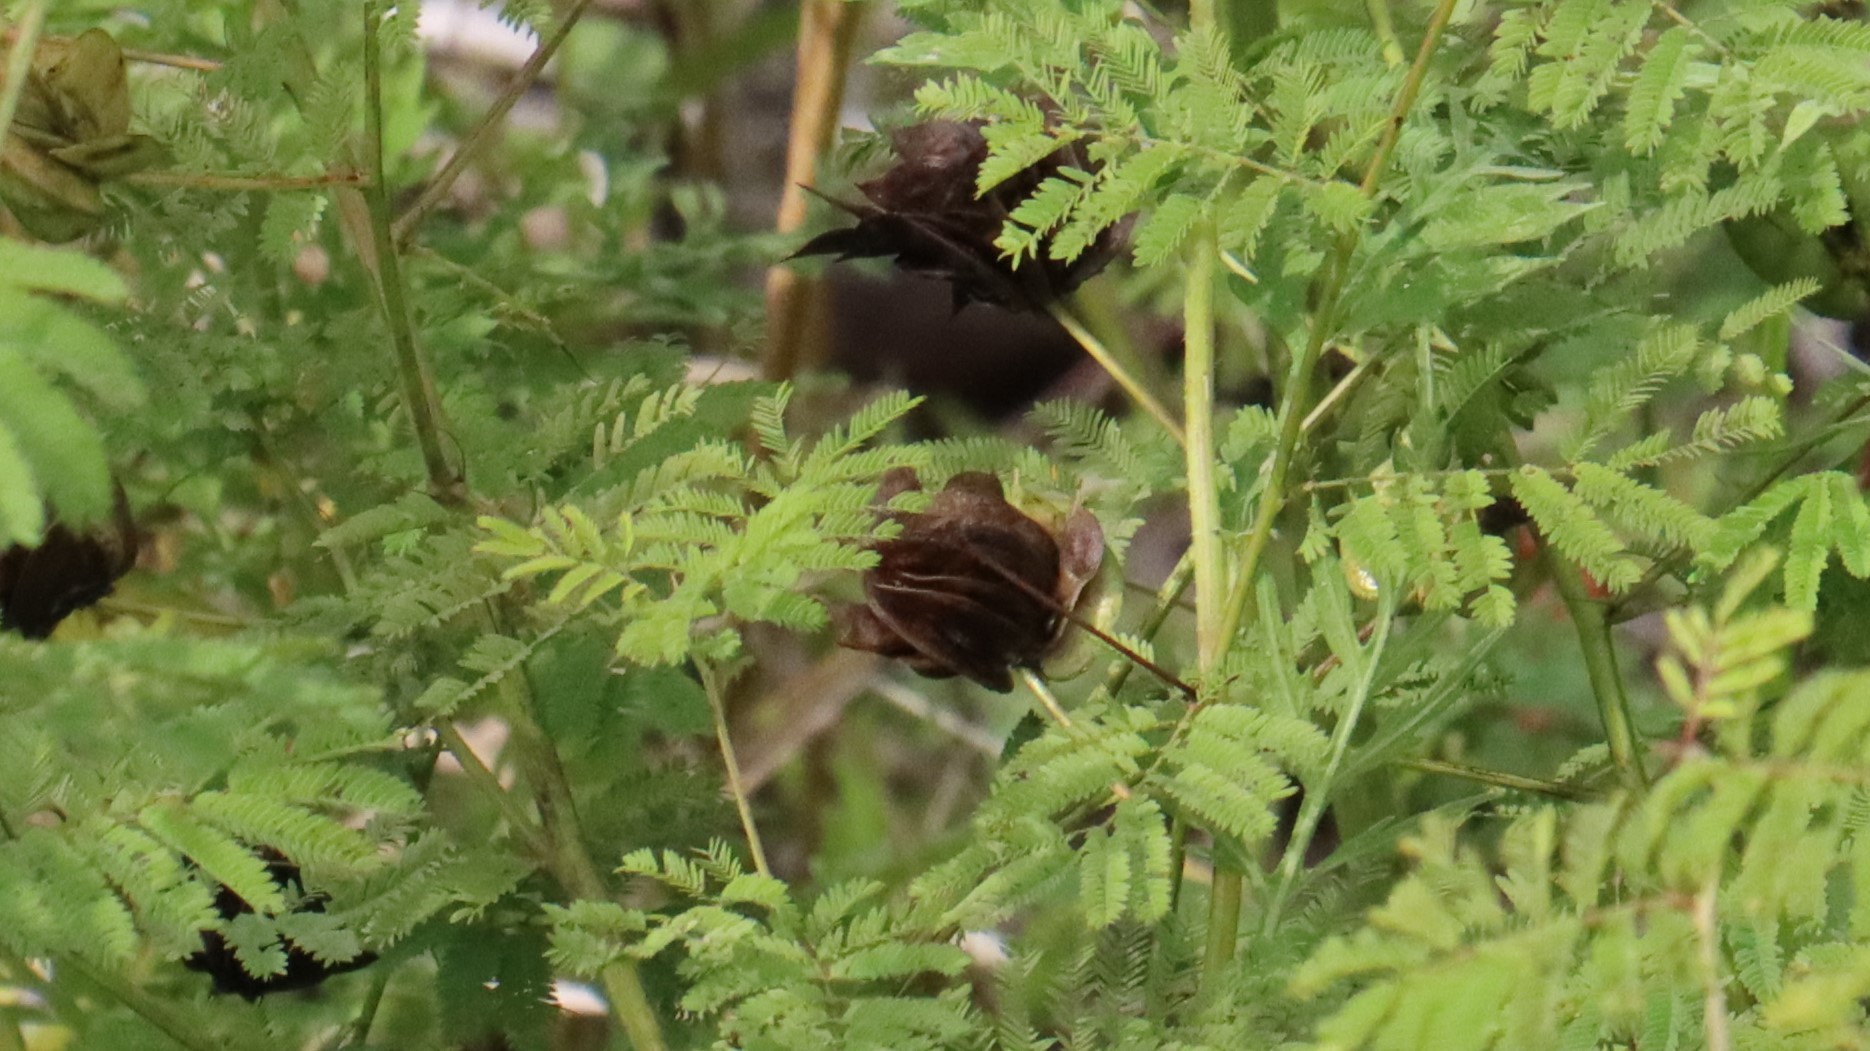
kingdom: Plantae
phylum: Tracheophyta
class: Magnoliopsida
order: Fabales
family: Fabaceae
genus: Desmanthus
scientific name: Desmanthus illinoensis
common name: Illinois bundle-flower
